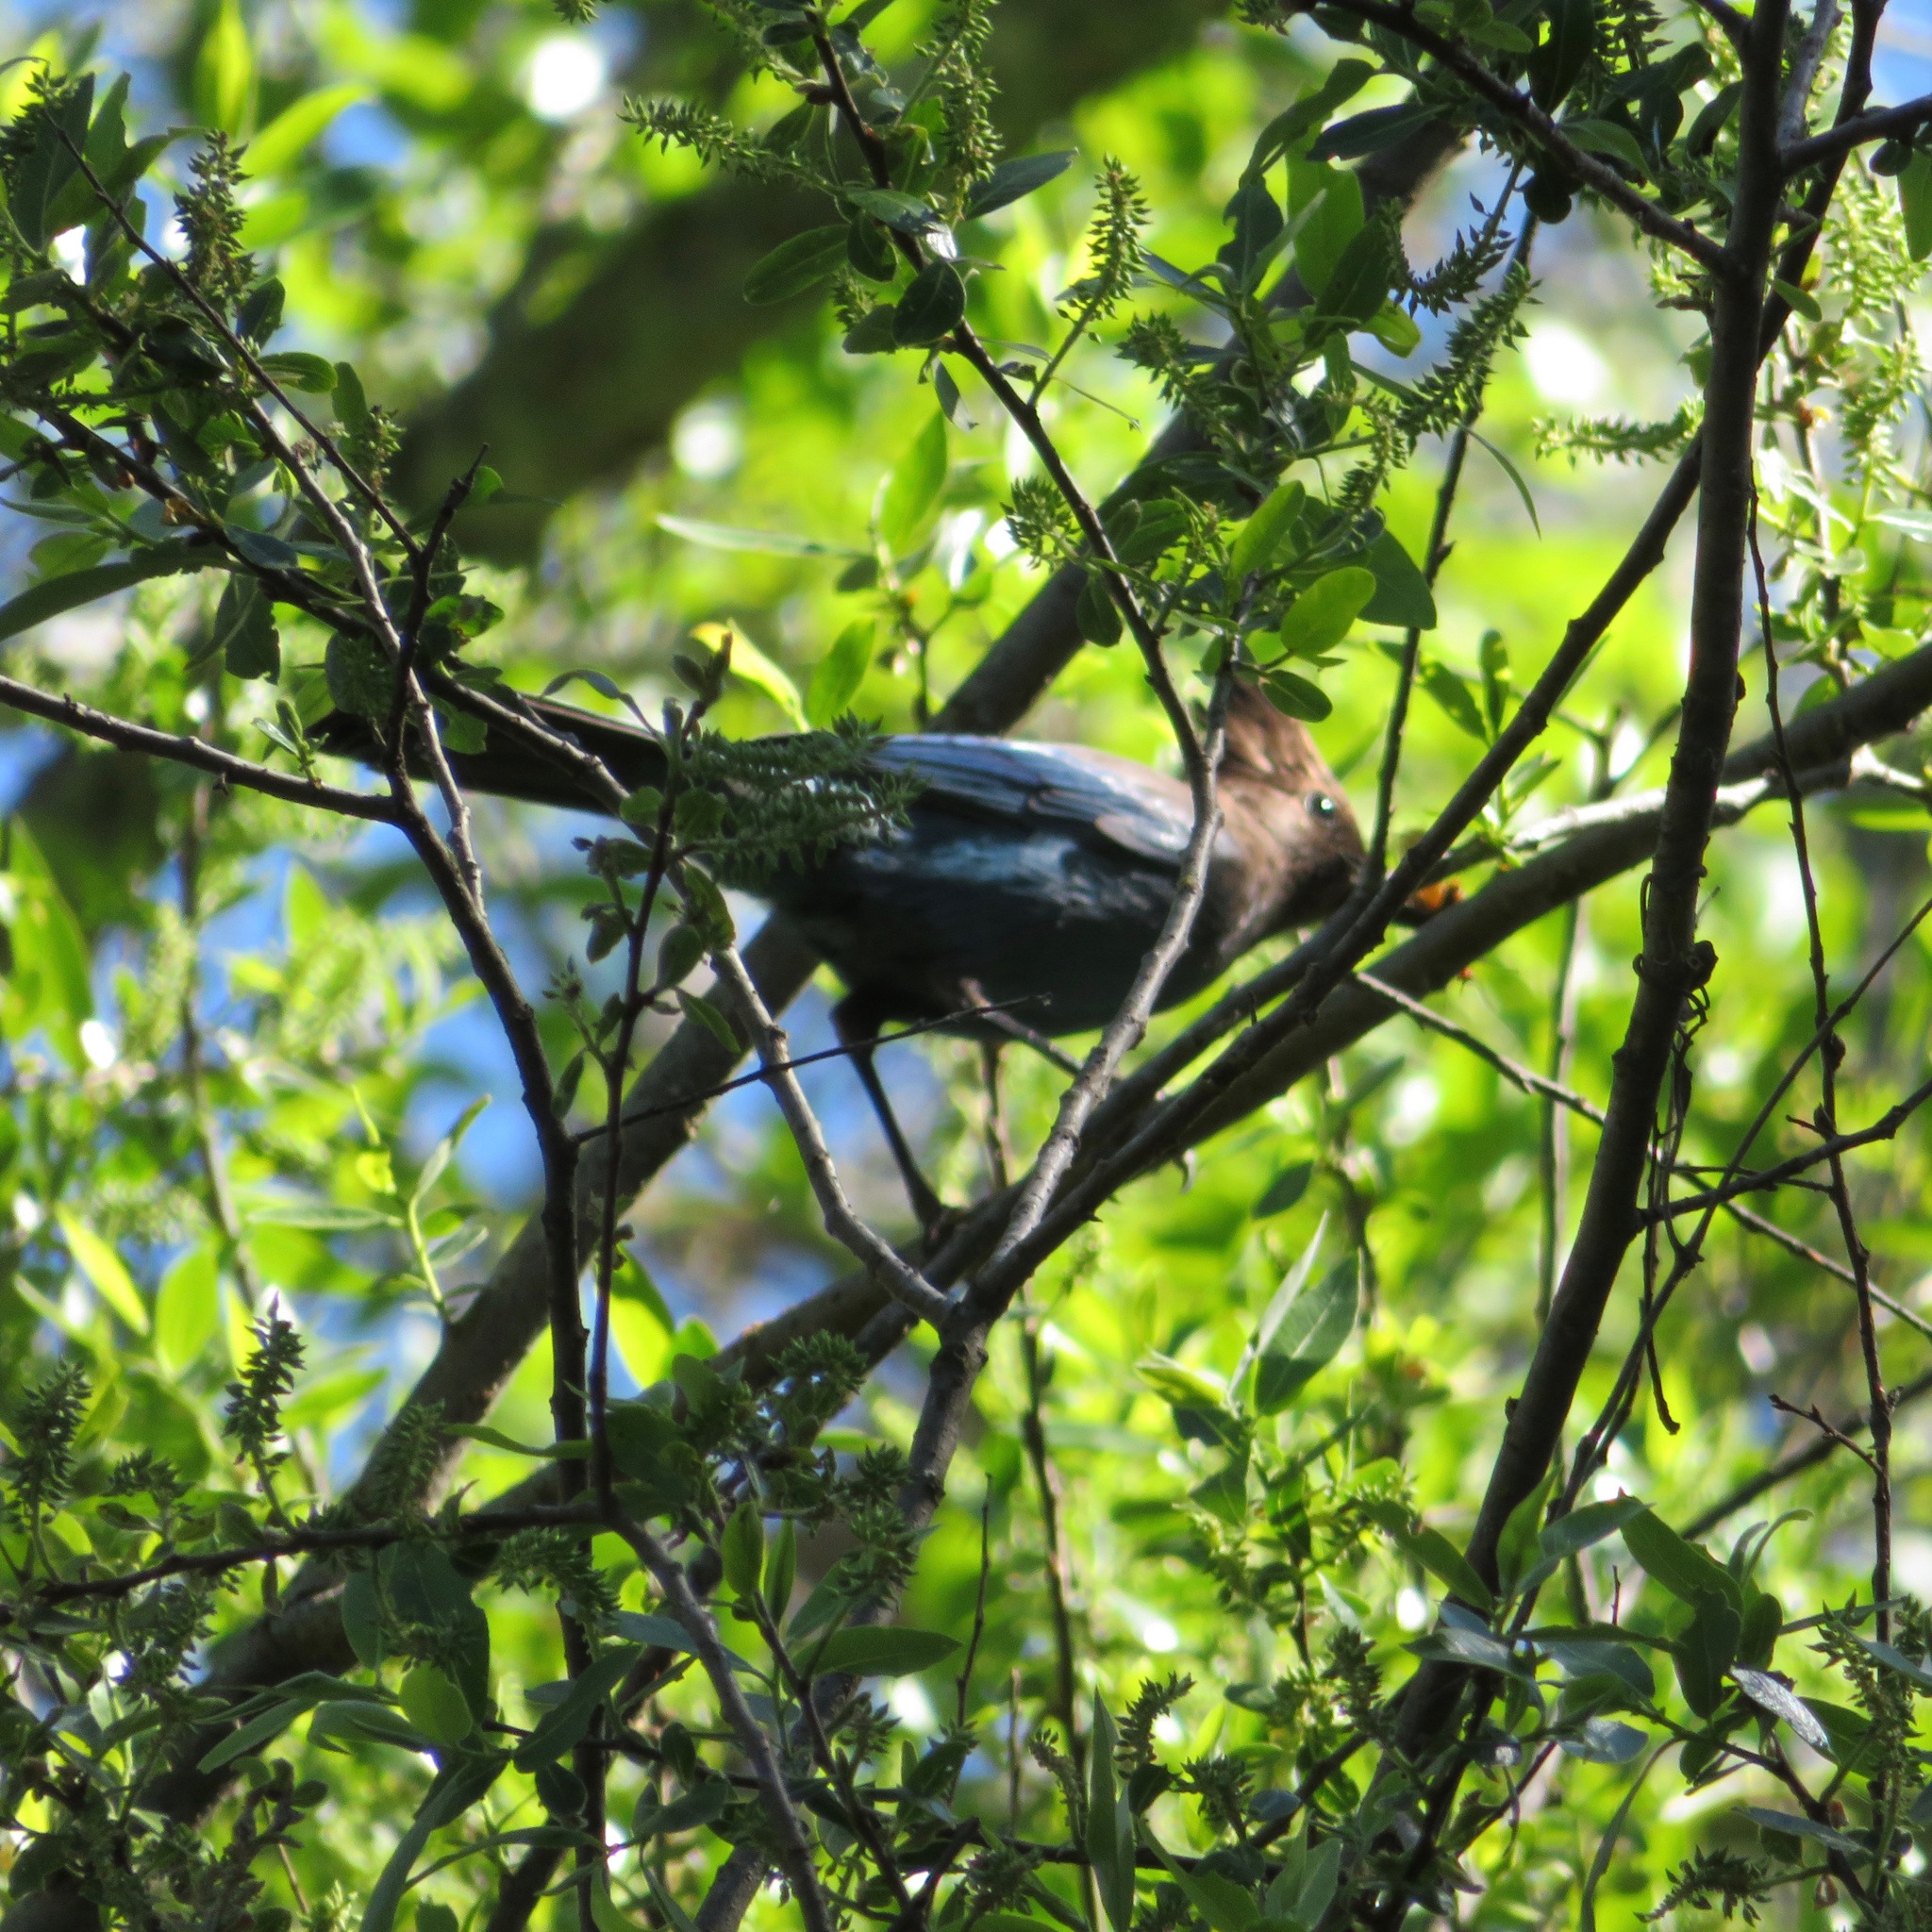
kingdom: Animalia
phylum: Chordata
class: Aves
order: Passeriformes
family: Corvidae
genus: Cyanocitta
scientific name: Cyanocitta stelleri
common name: Steller's jay
